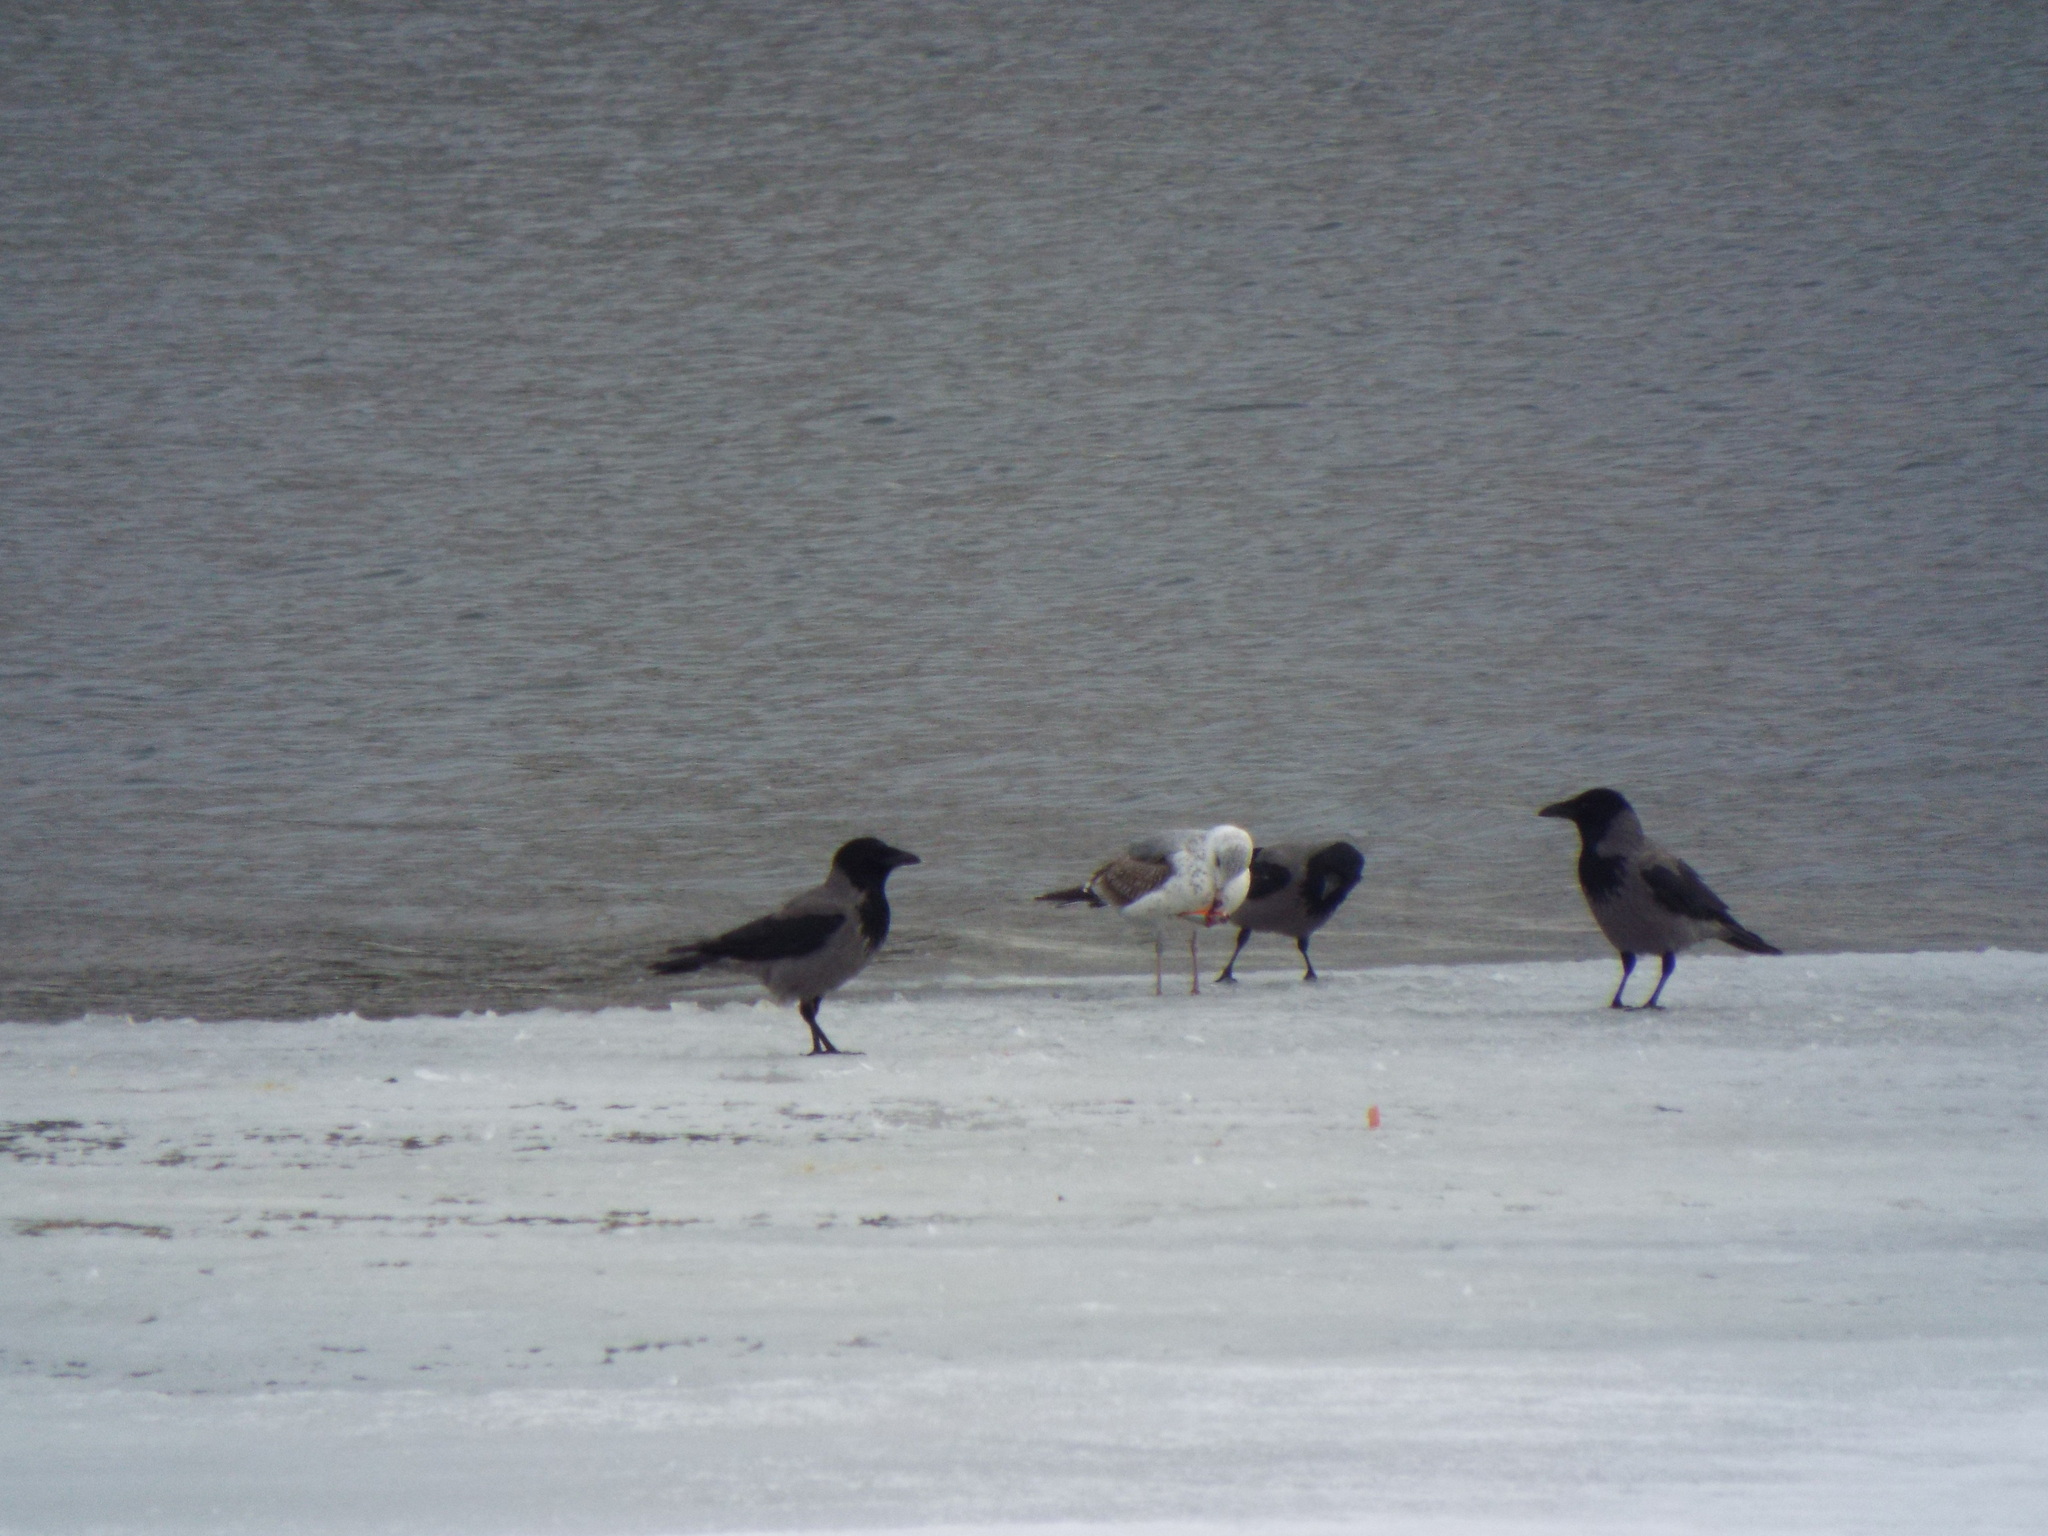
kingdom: Animalia
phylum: Chordata
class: Aves
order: Charadriiformes
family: Laridae
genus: Larus
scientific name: Larus canus
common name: Mew gull
